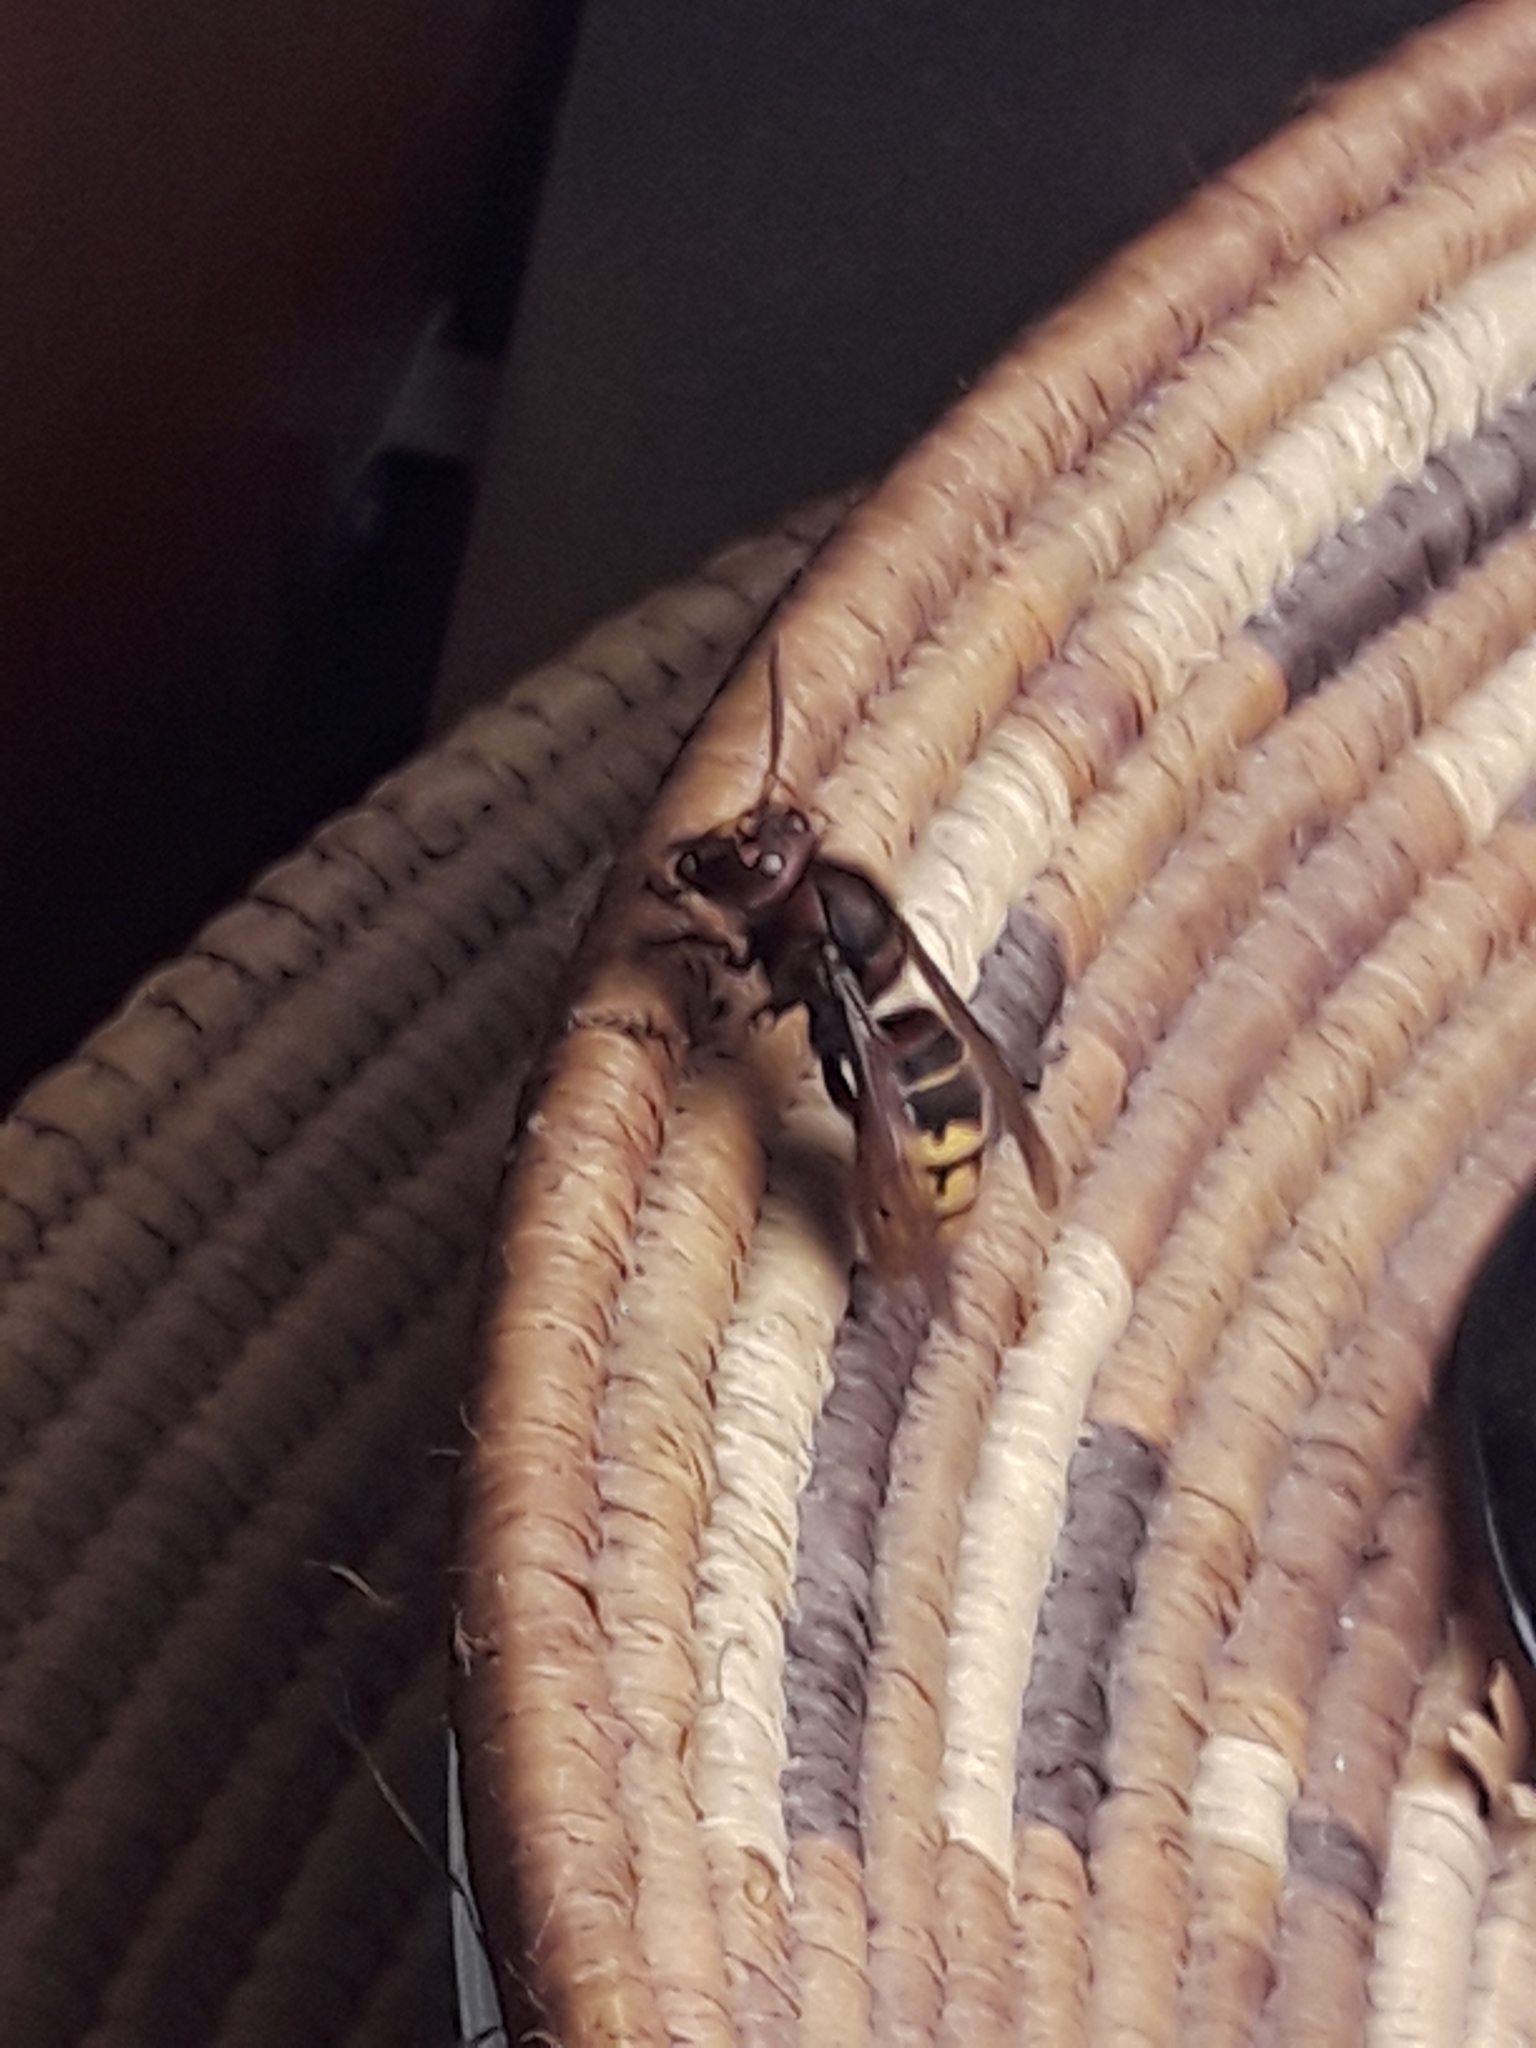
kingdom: Animalia
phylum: Arthropoda
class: Insecta
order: Hymenoptera
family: Vespidae
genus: Vespa
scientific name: Vespa crabro
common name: Hornet
